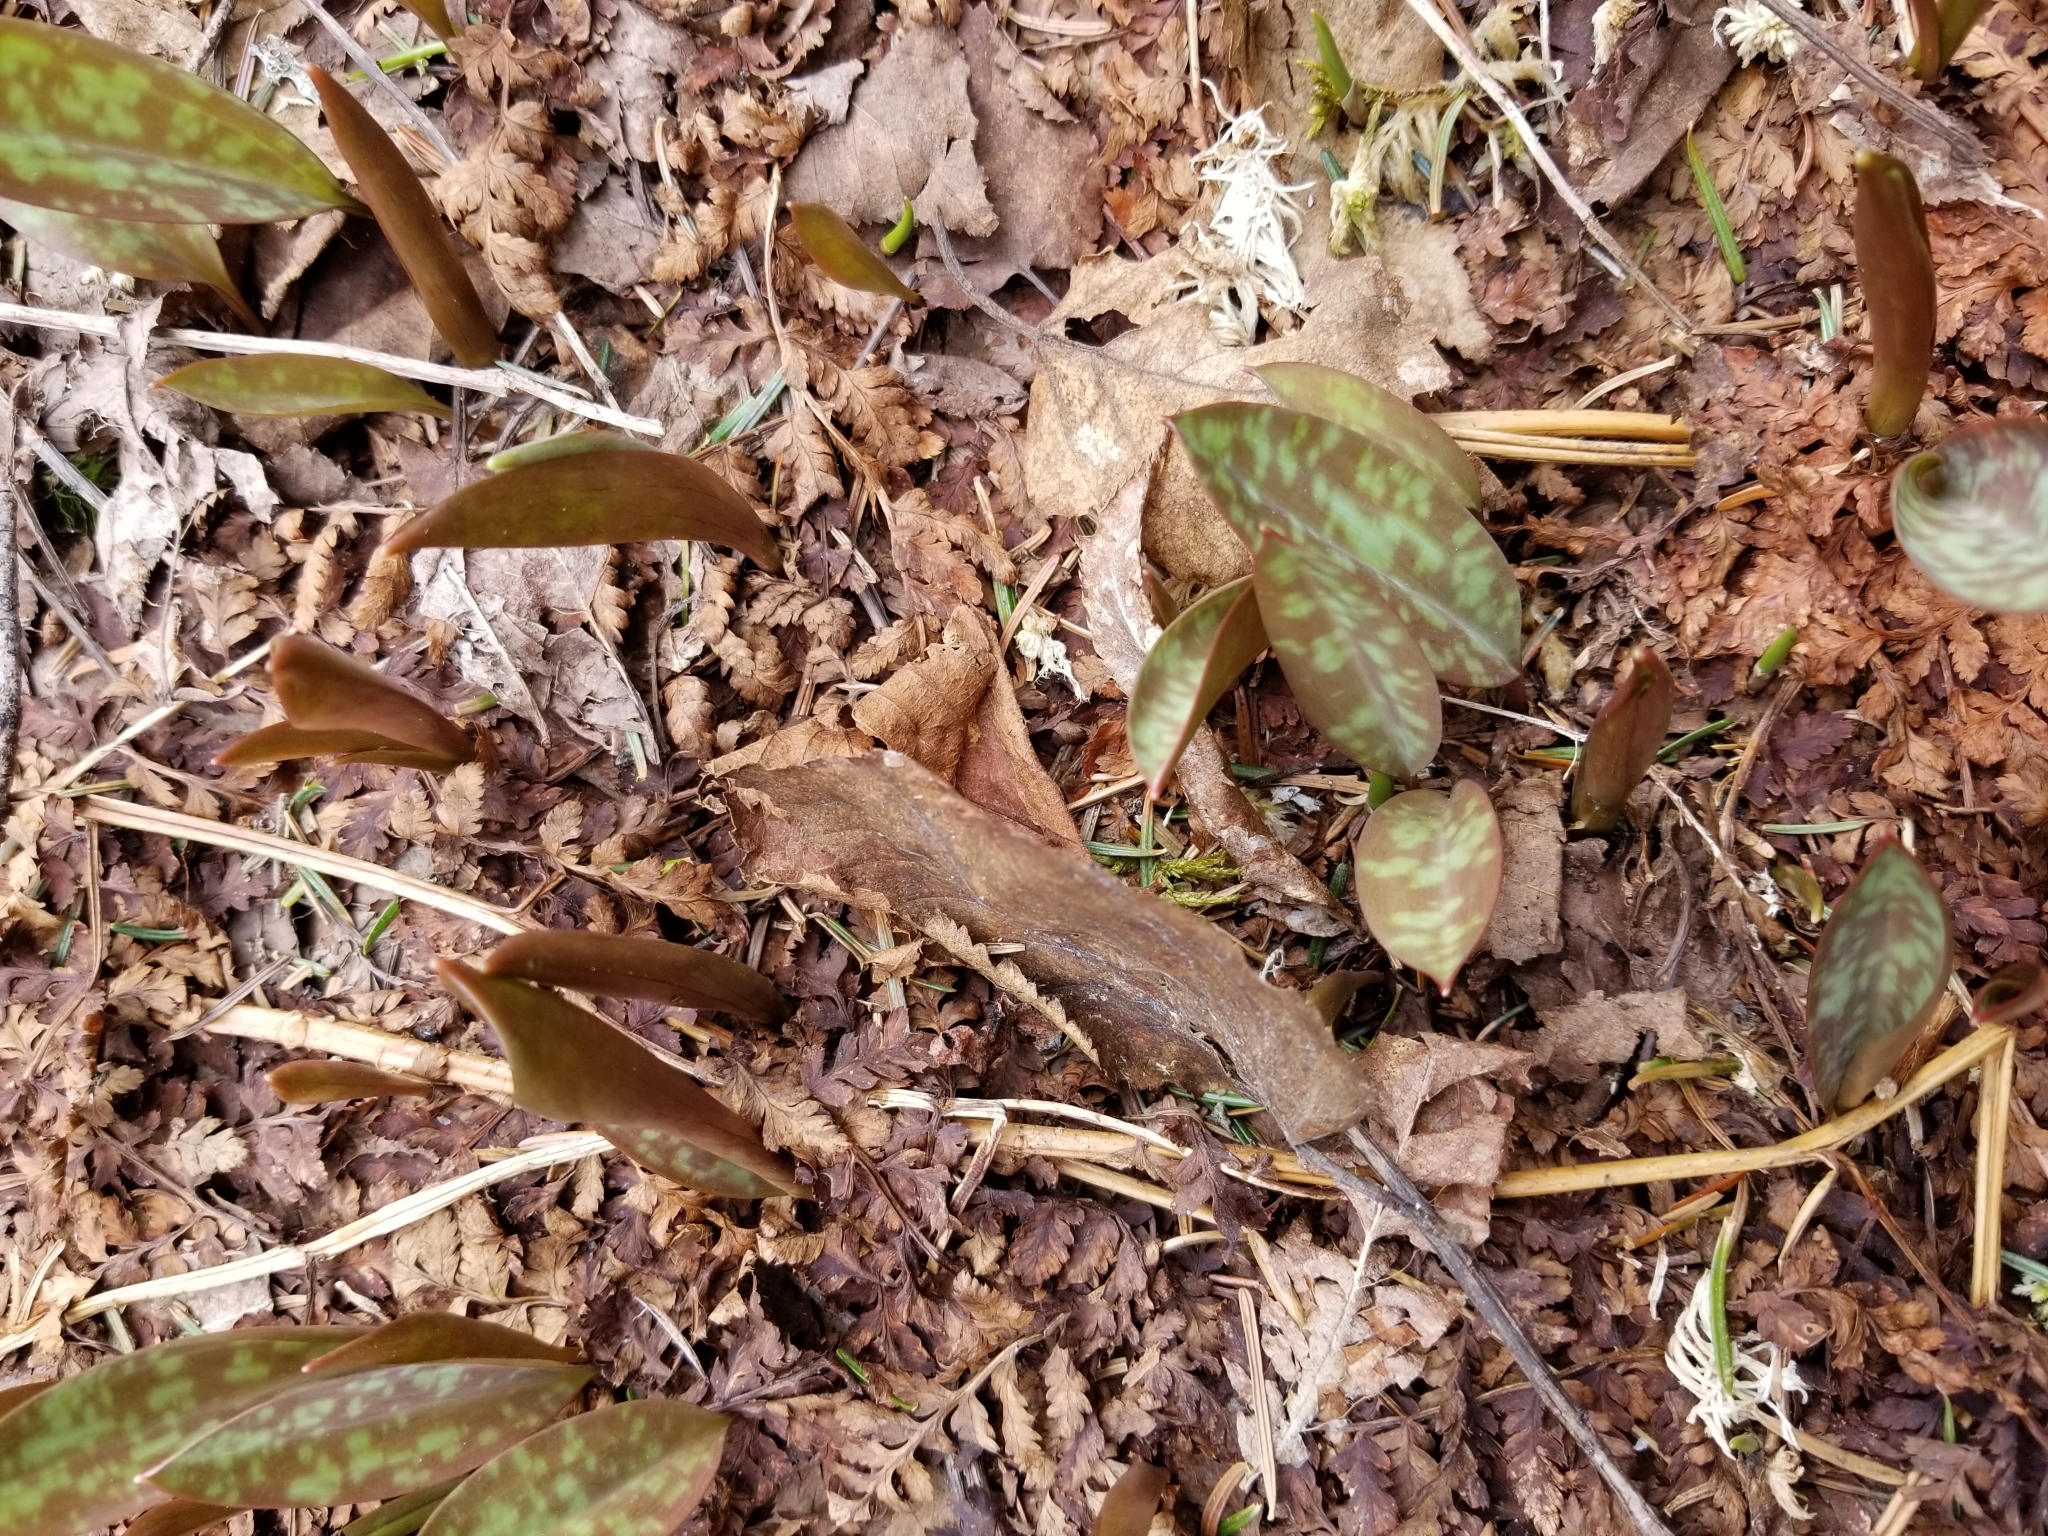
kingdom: Plantae
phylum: Tracheophyta
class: Liliopsida
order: Liliales
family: Liliaceae
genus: Erythronium
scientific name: Erythronium americanum
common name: Yellow adder's-tongue
